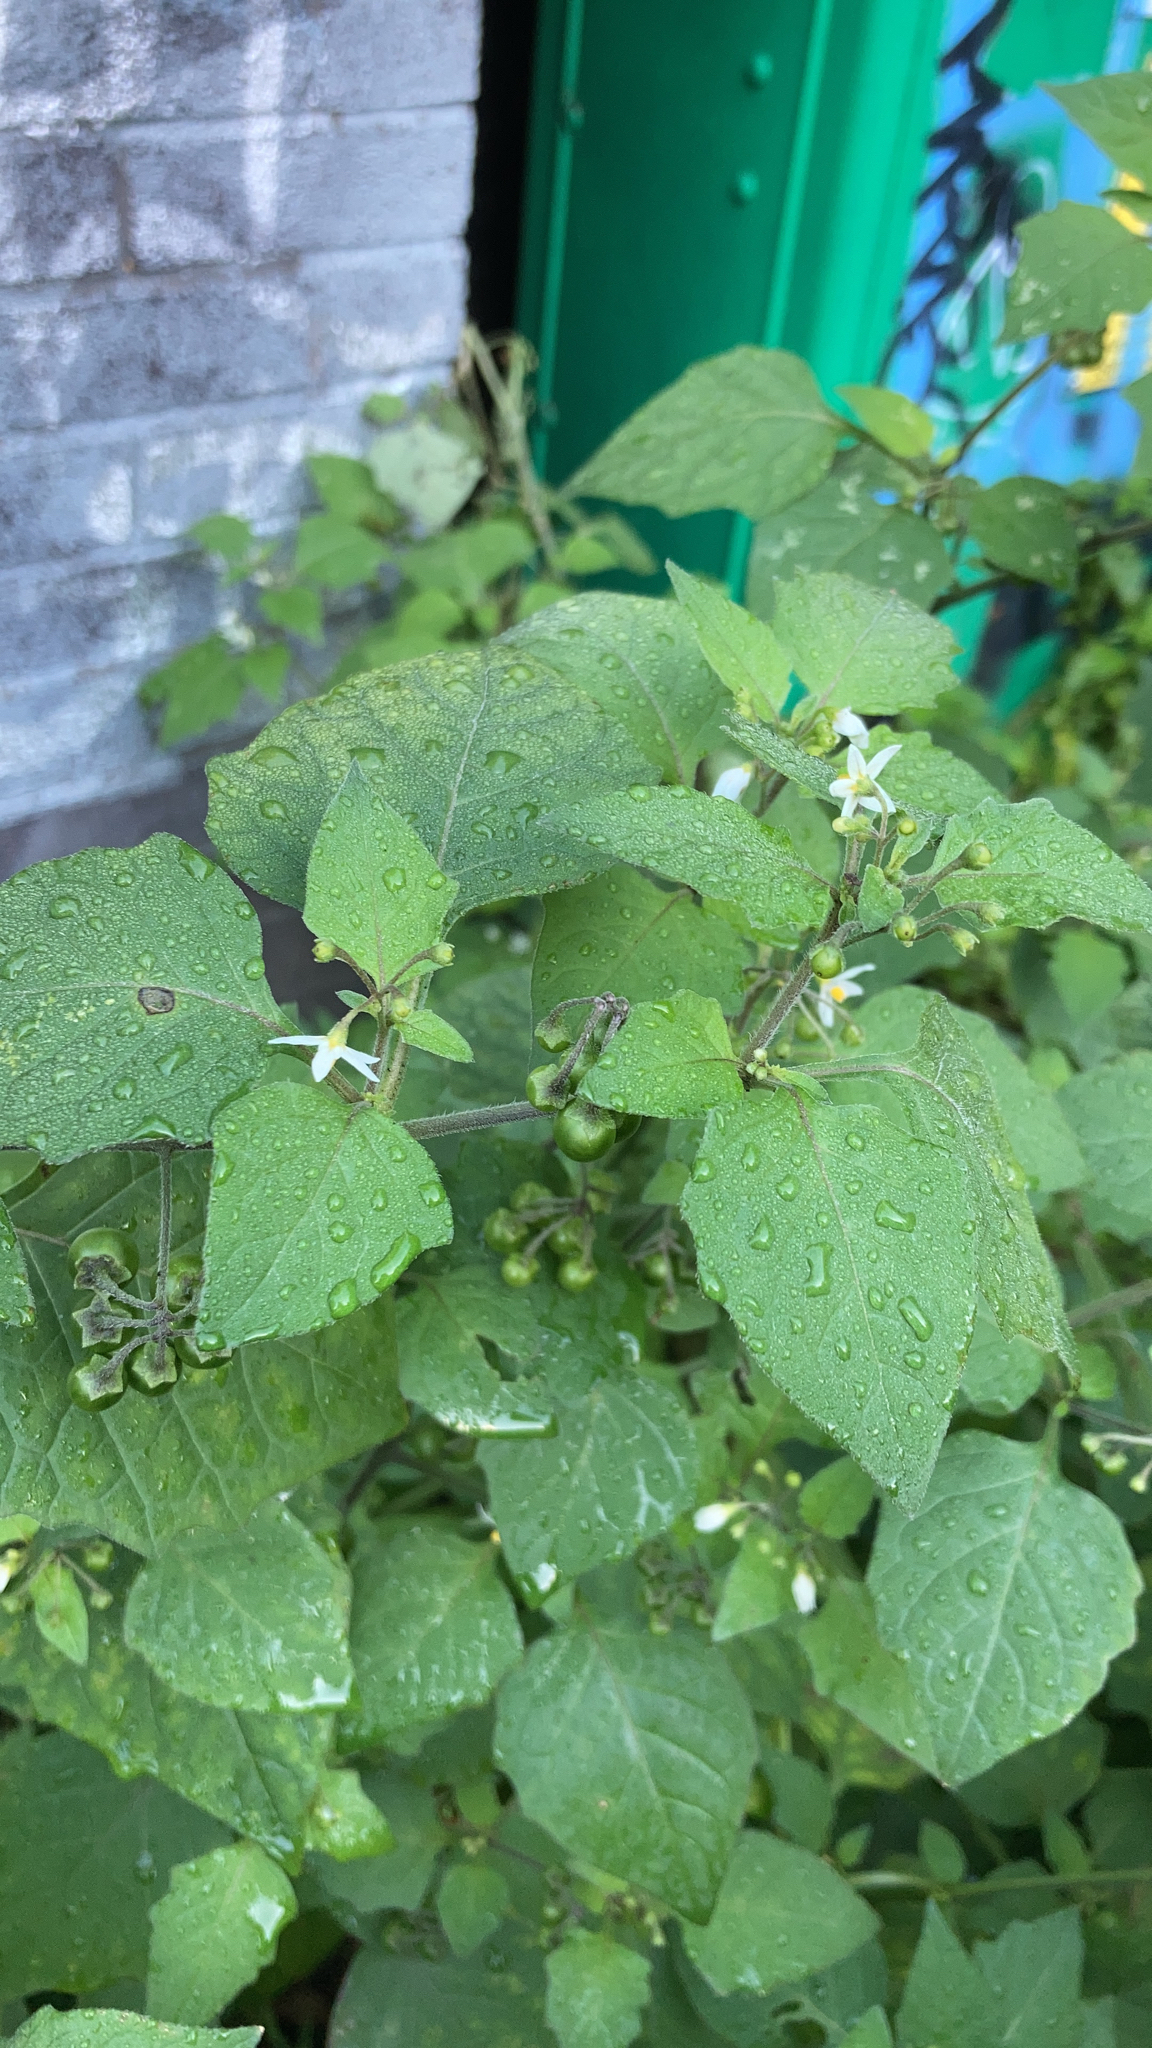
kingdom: Plantae
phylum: Tracheophyta
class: Magnoliopsida
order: Solanales
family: Solanaceae
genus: Solanum
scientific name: Solanum nigrum
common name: Black nightshade
